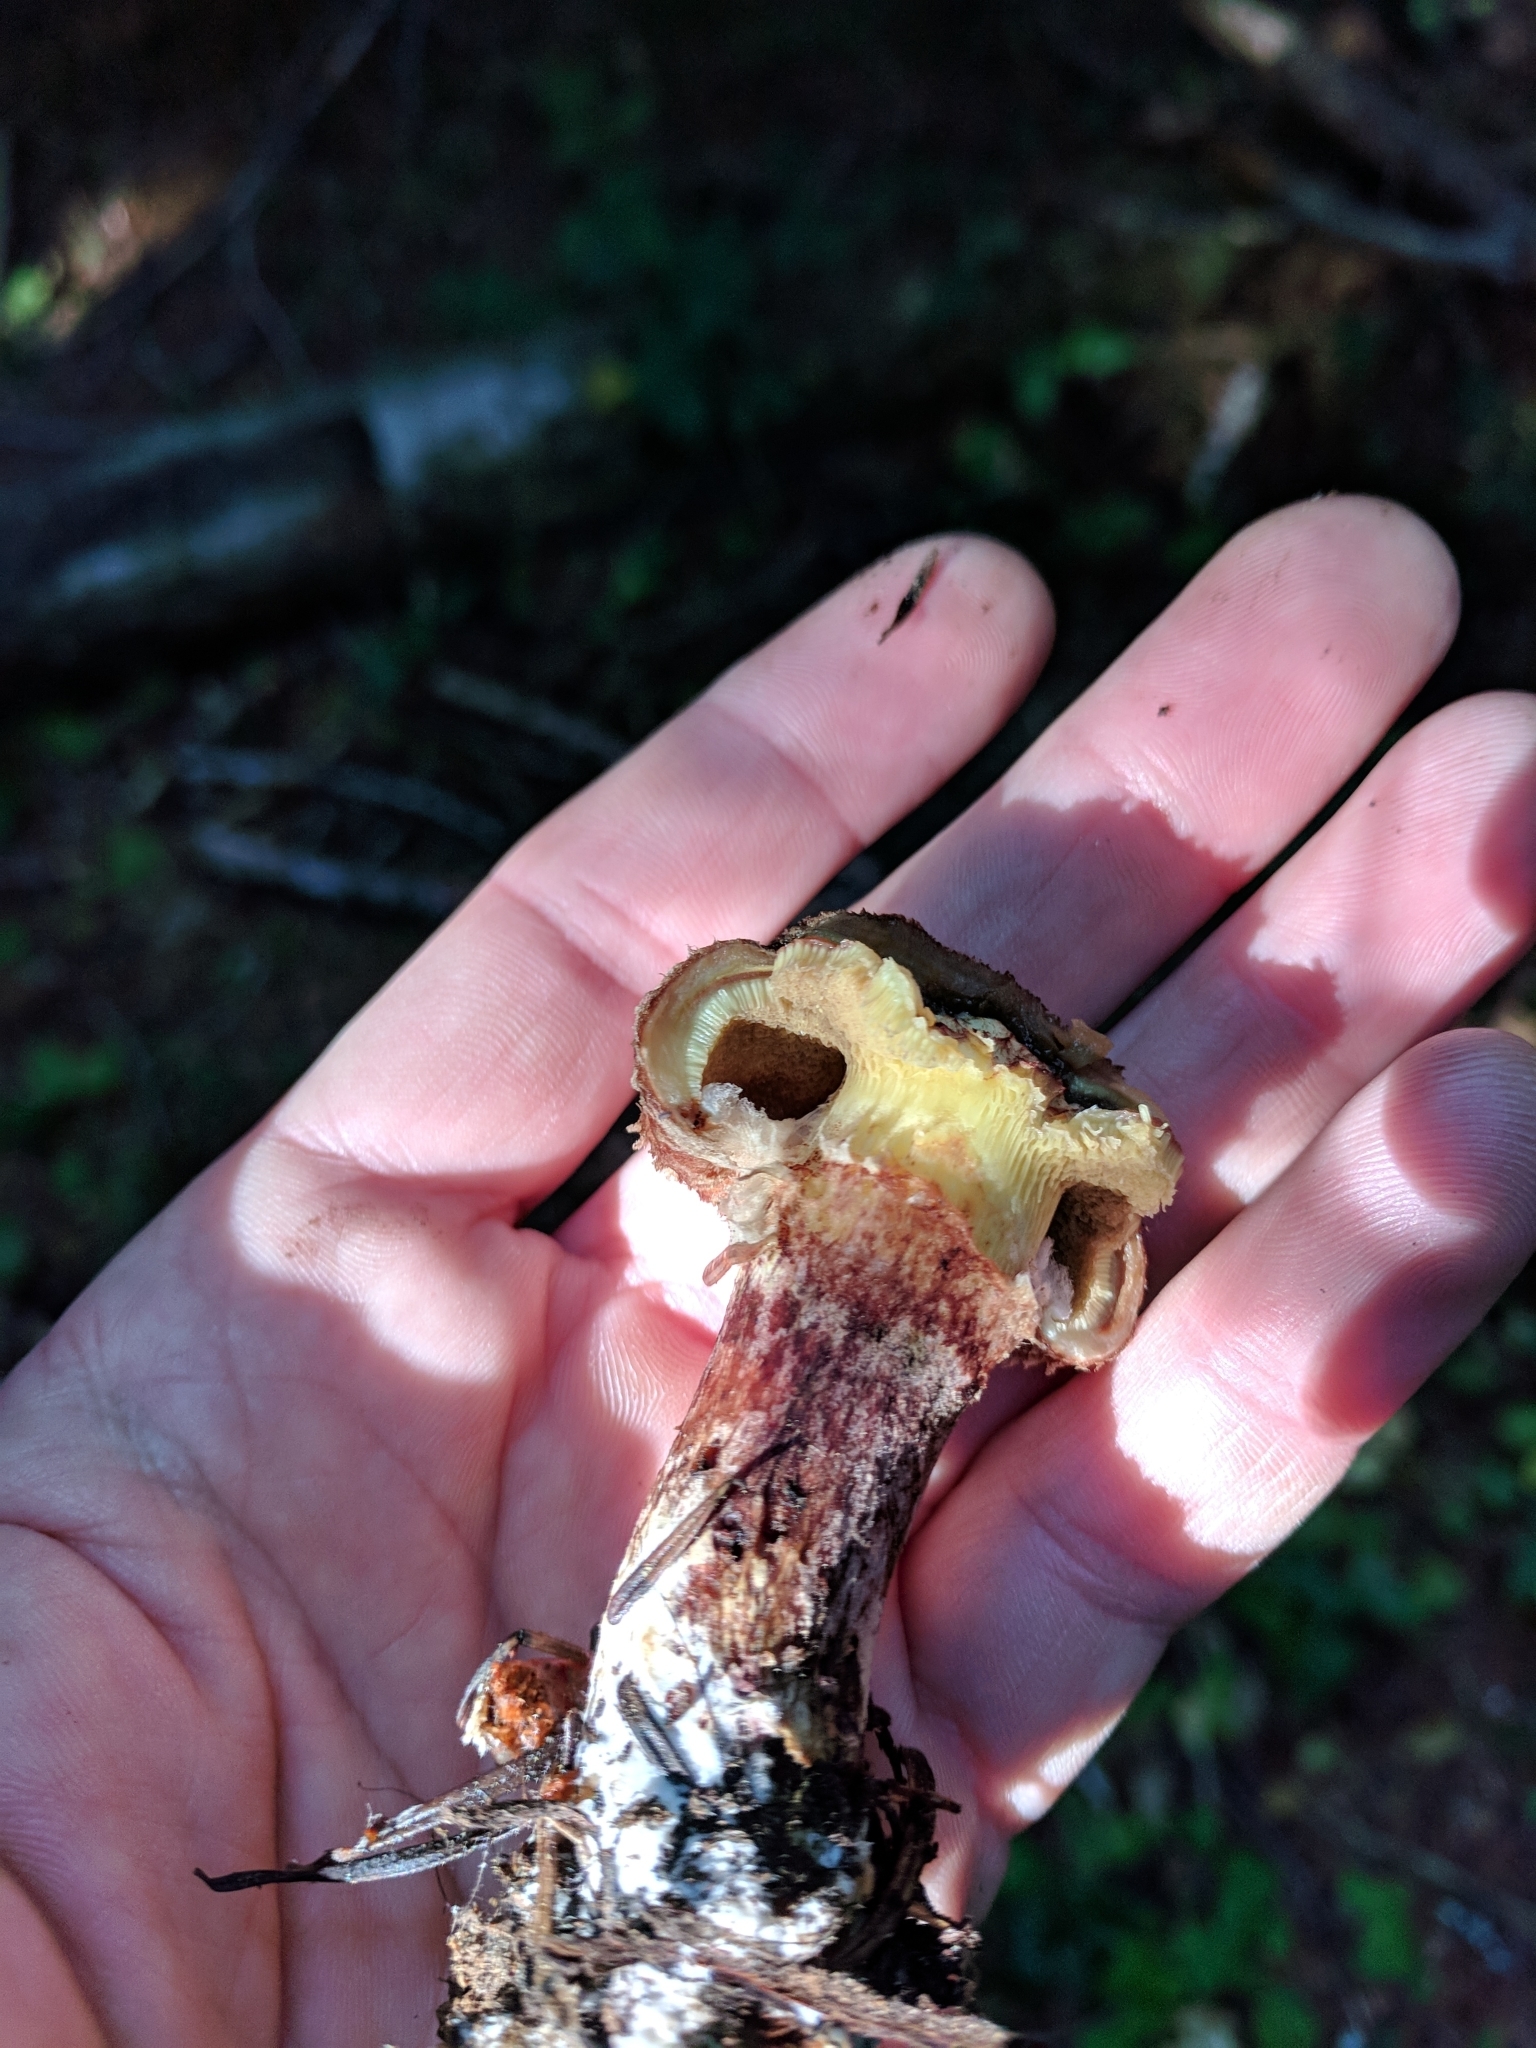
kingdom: Fungi
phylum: Basidiomycota
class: Agaricomycetes
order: Boletales
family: Suillaceae
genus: Suillus
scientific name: Suillus lakei
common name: Western painted suillus
